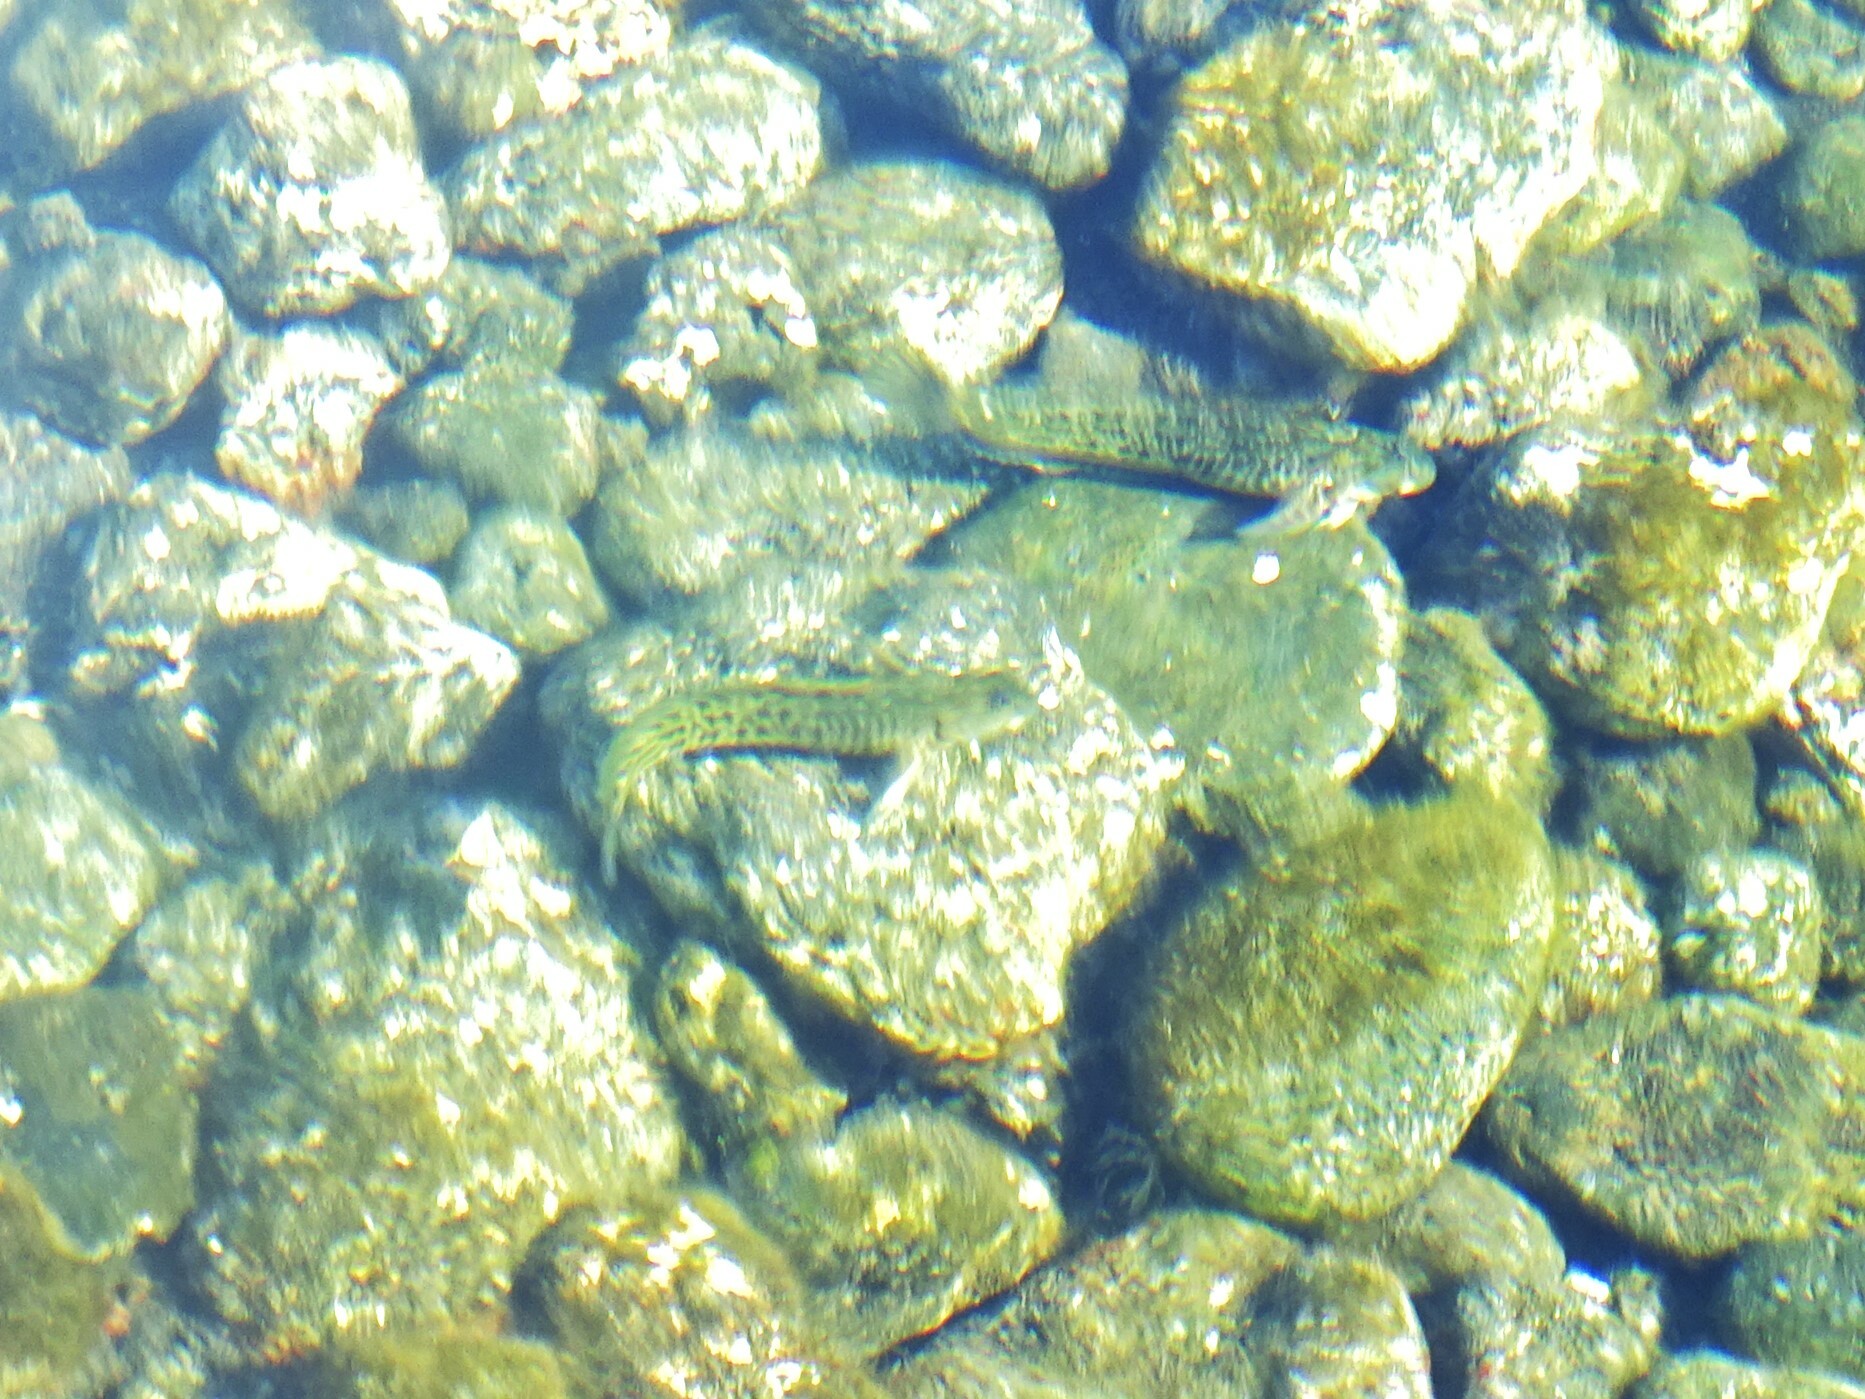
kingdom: Animalia
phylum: Chordata
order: Perciformes
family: Blenniidae
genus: Parablennius
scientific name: Parablennius parvicornis
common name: Rock-pool blenny
